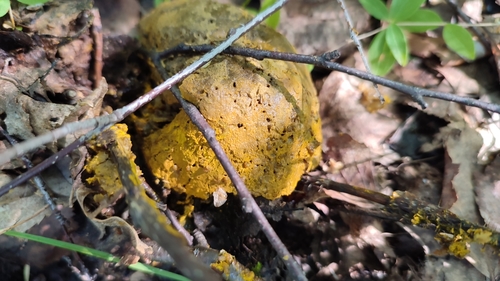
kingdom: Fungi
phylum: Ascomycota
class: Sordariomycetes
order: Hypocreales
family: Hypocreaceae
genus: Hypomyces
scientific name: Hypomyces chrysospermus
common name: Bolete mould
